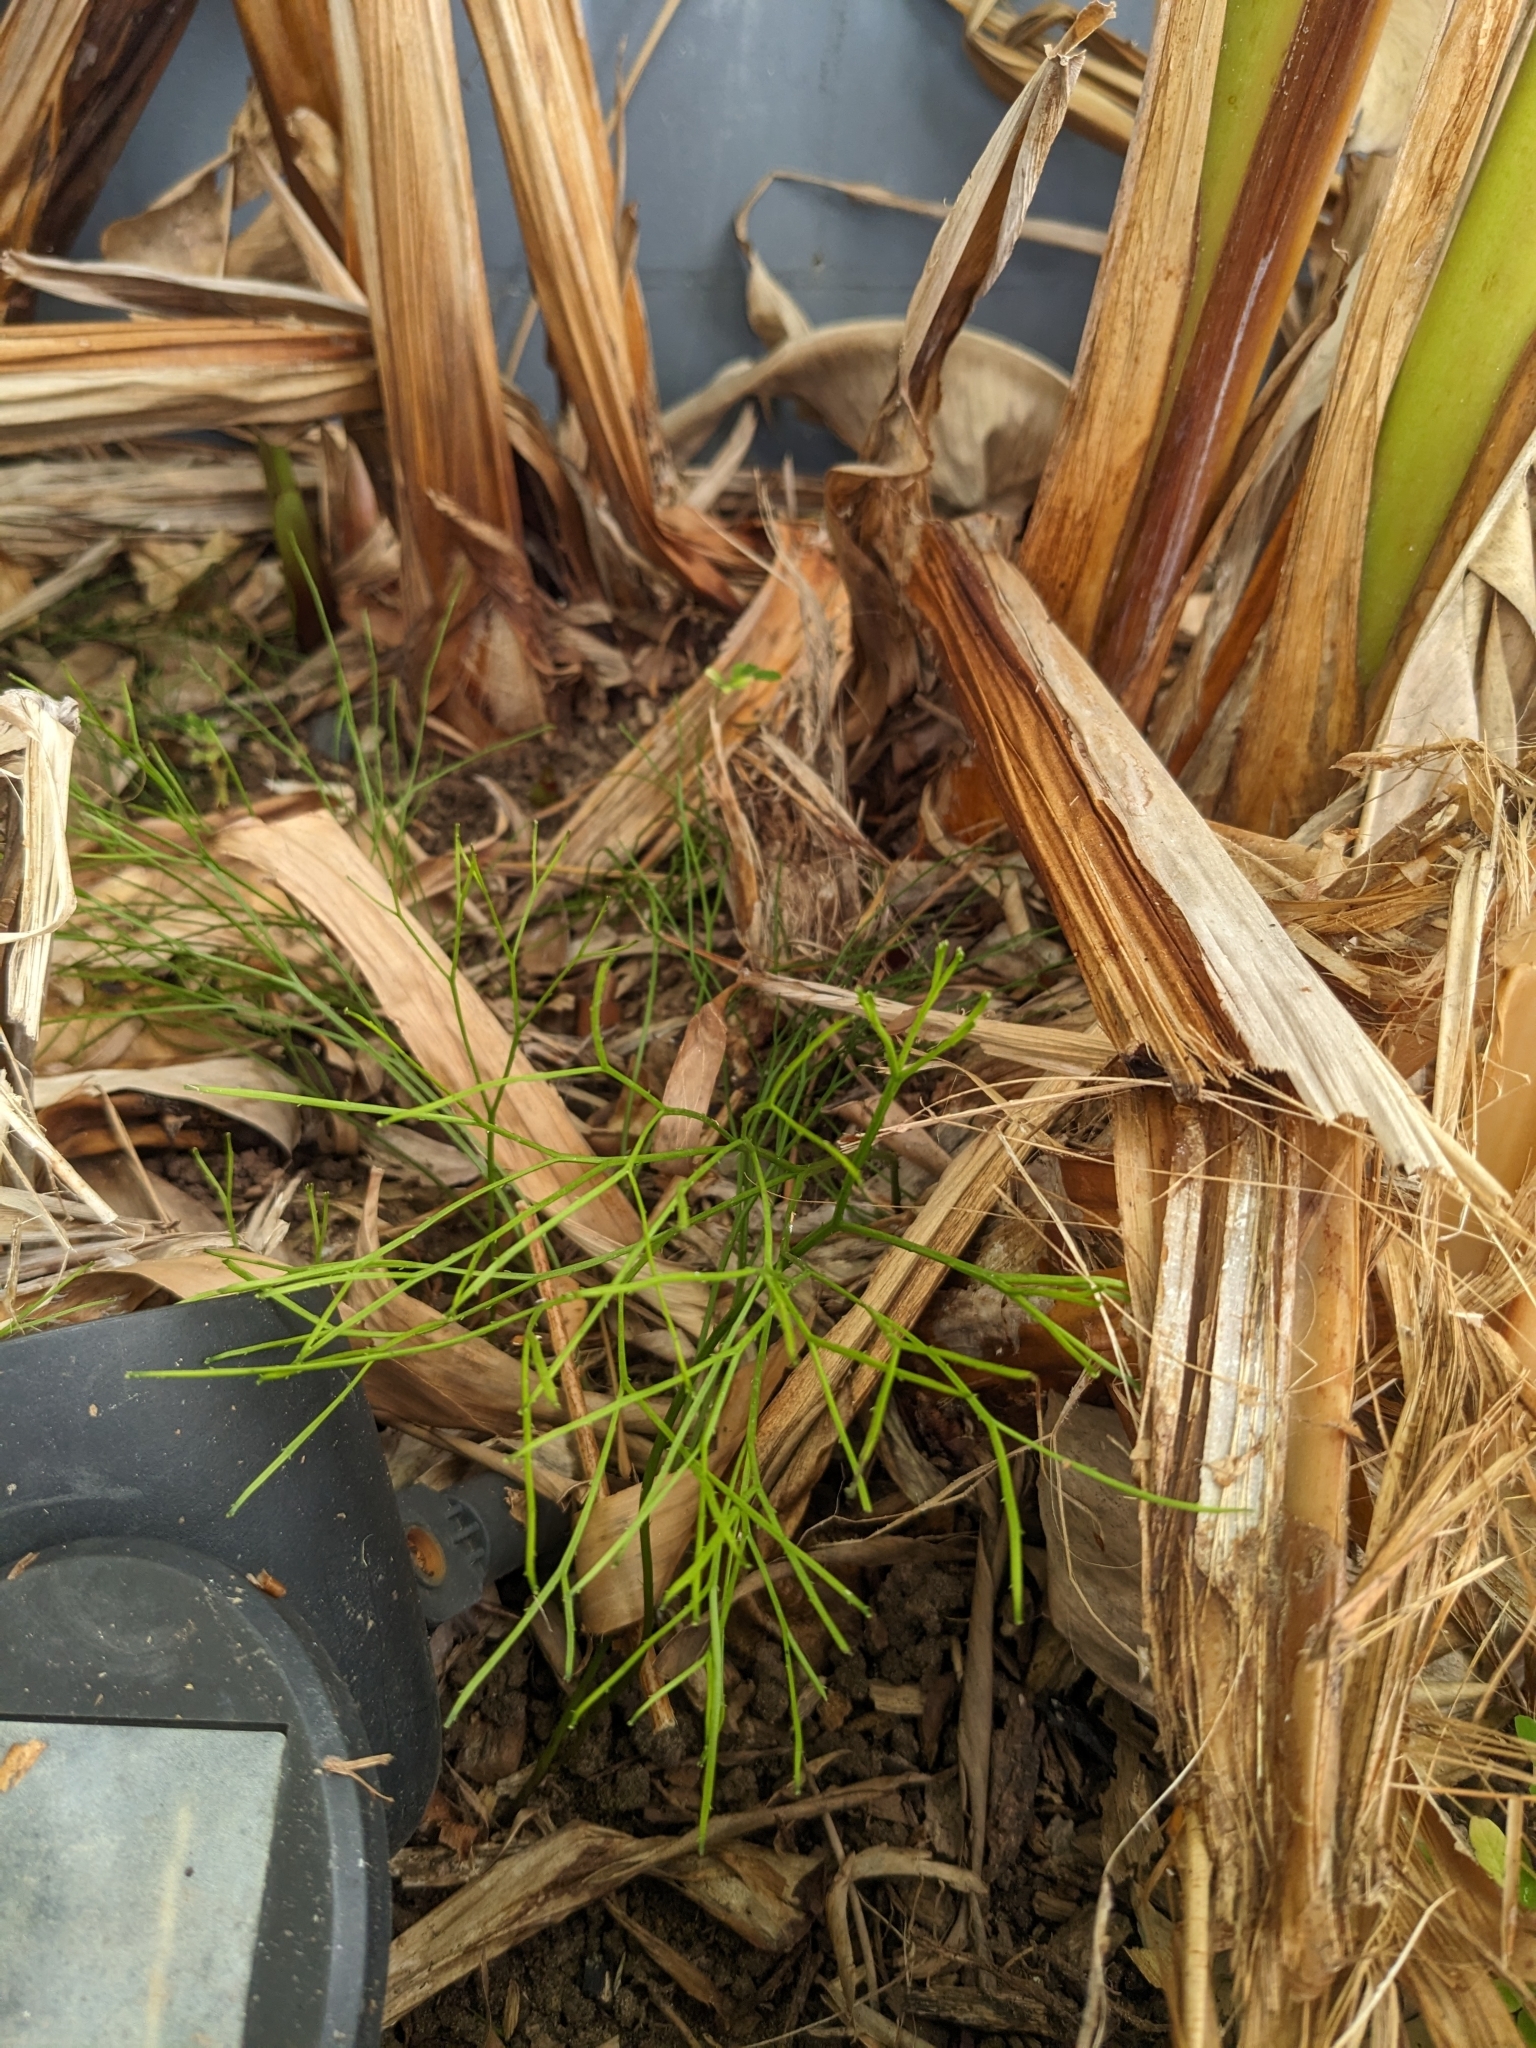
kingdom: Plantae
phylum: Tracheophyta
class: Polypodiopsida
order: Psilotales
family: Psilotaceae
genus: Psilotum
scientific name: Psilotum nudum
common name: Skeleton fork fern
